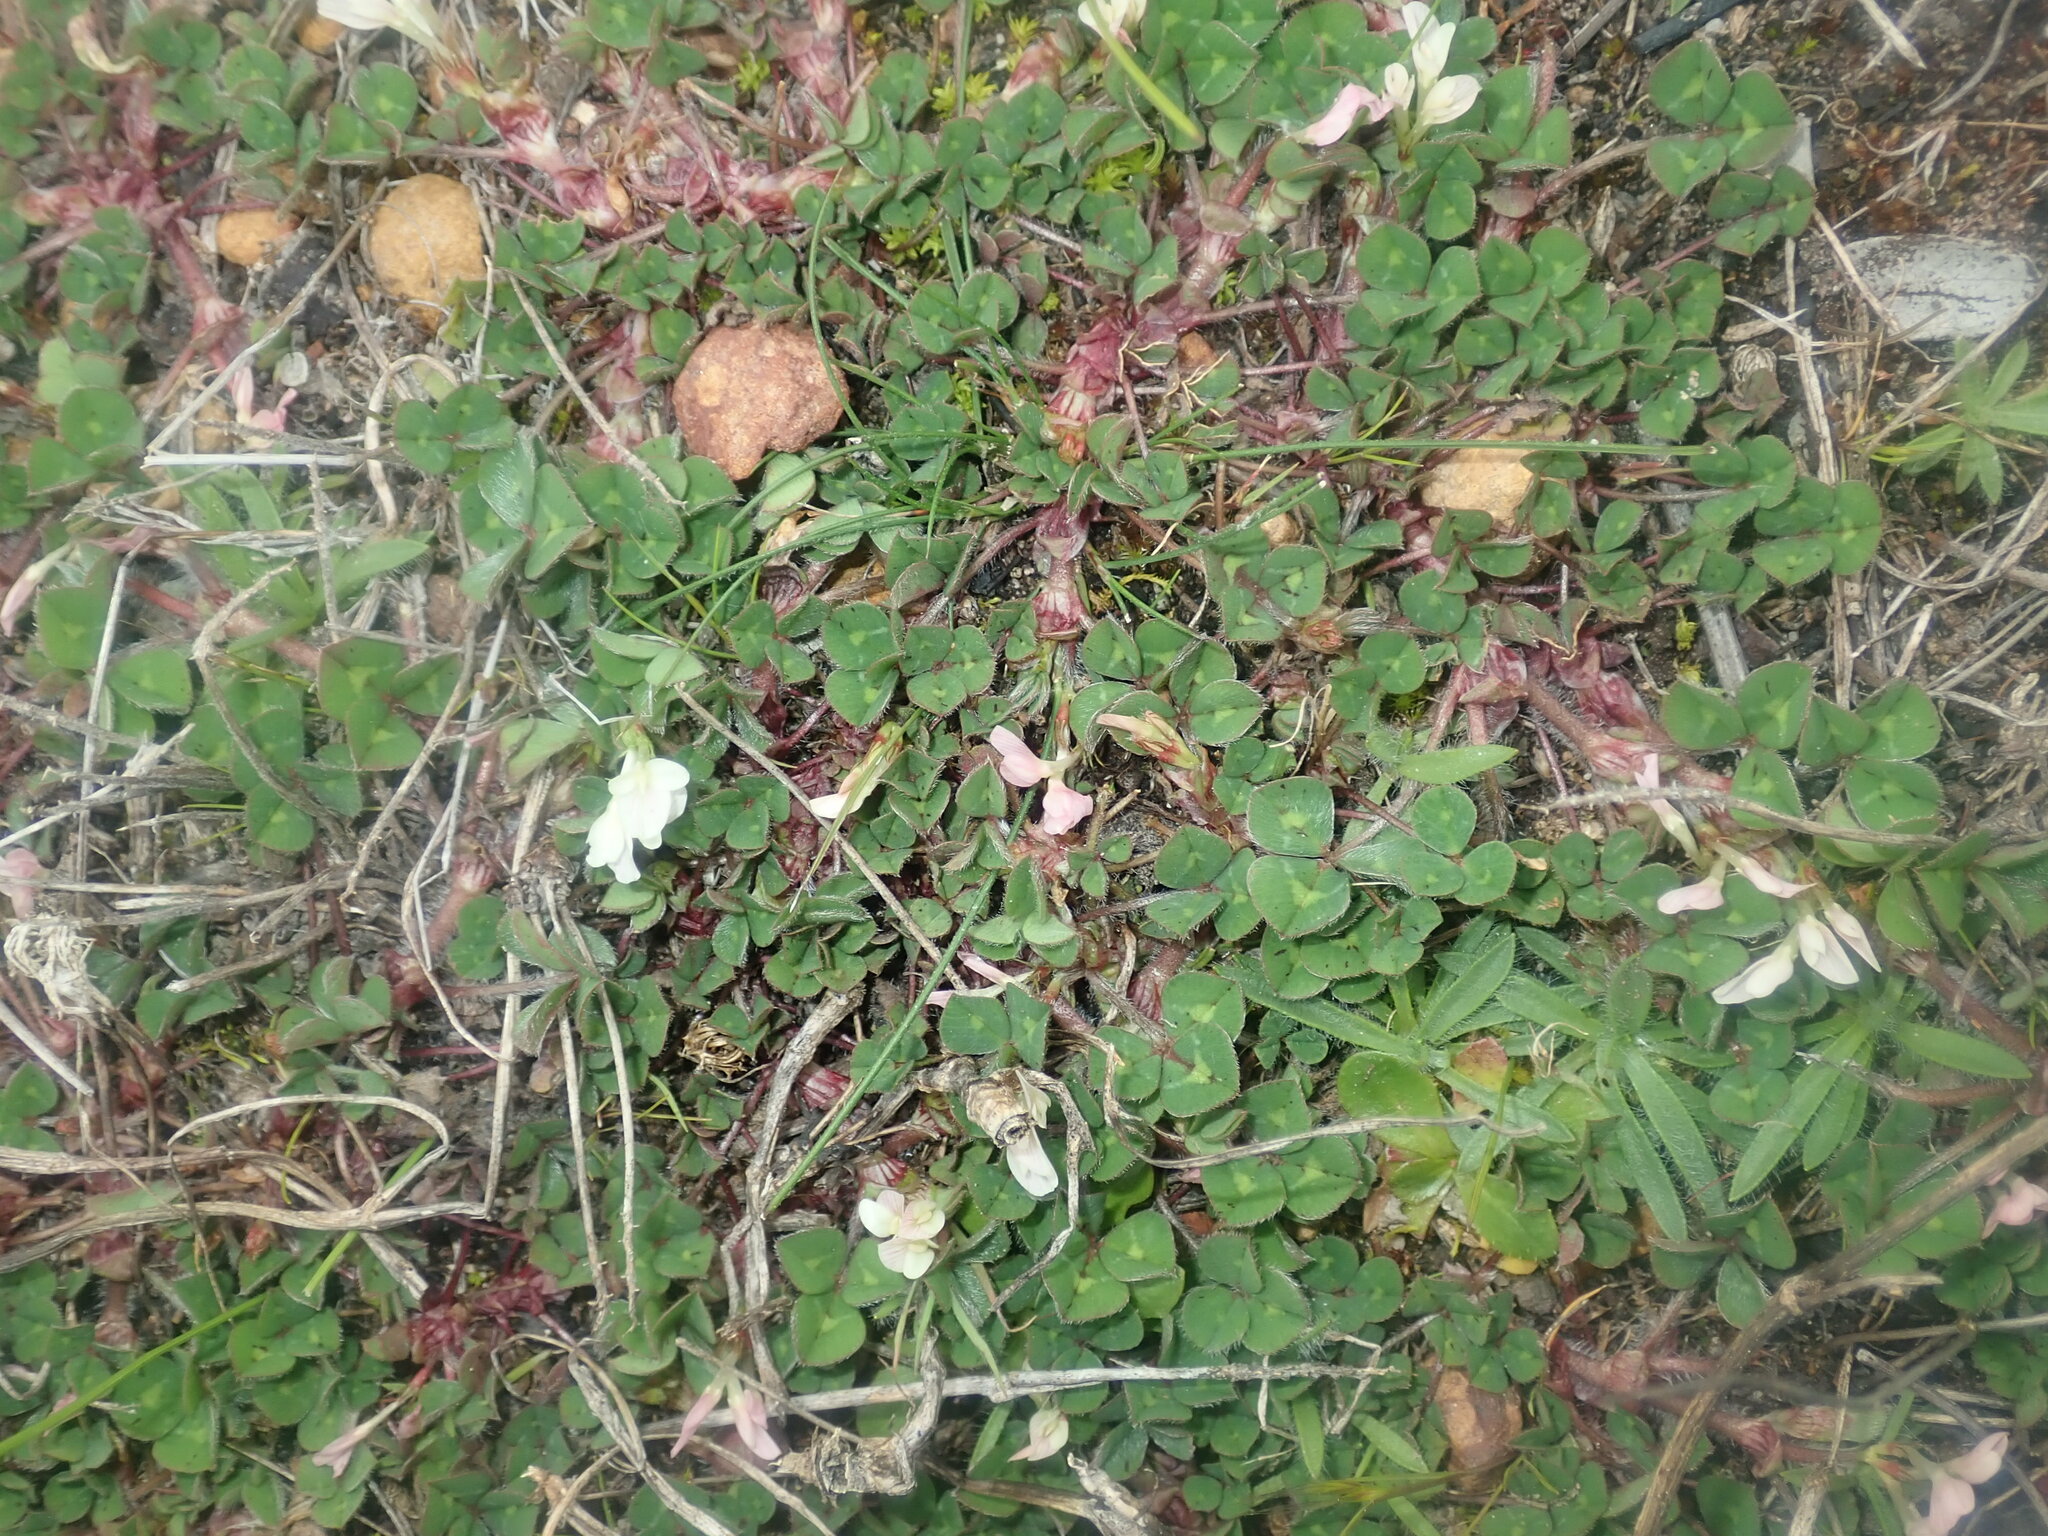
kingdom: Plantae
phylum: Tracheophyta
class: Magnoliopsida
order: Fabales
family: Fabaceae
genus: Trifolium
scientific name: Trifolium subterraneum
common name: Subterranean clover
